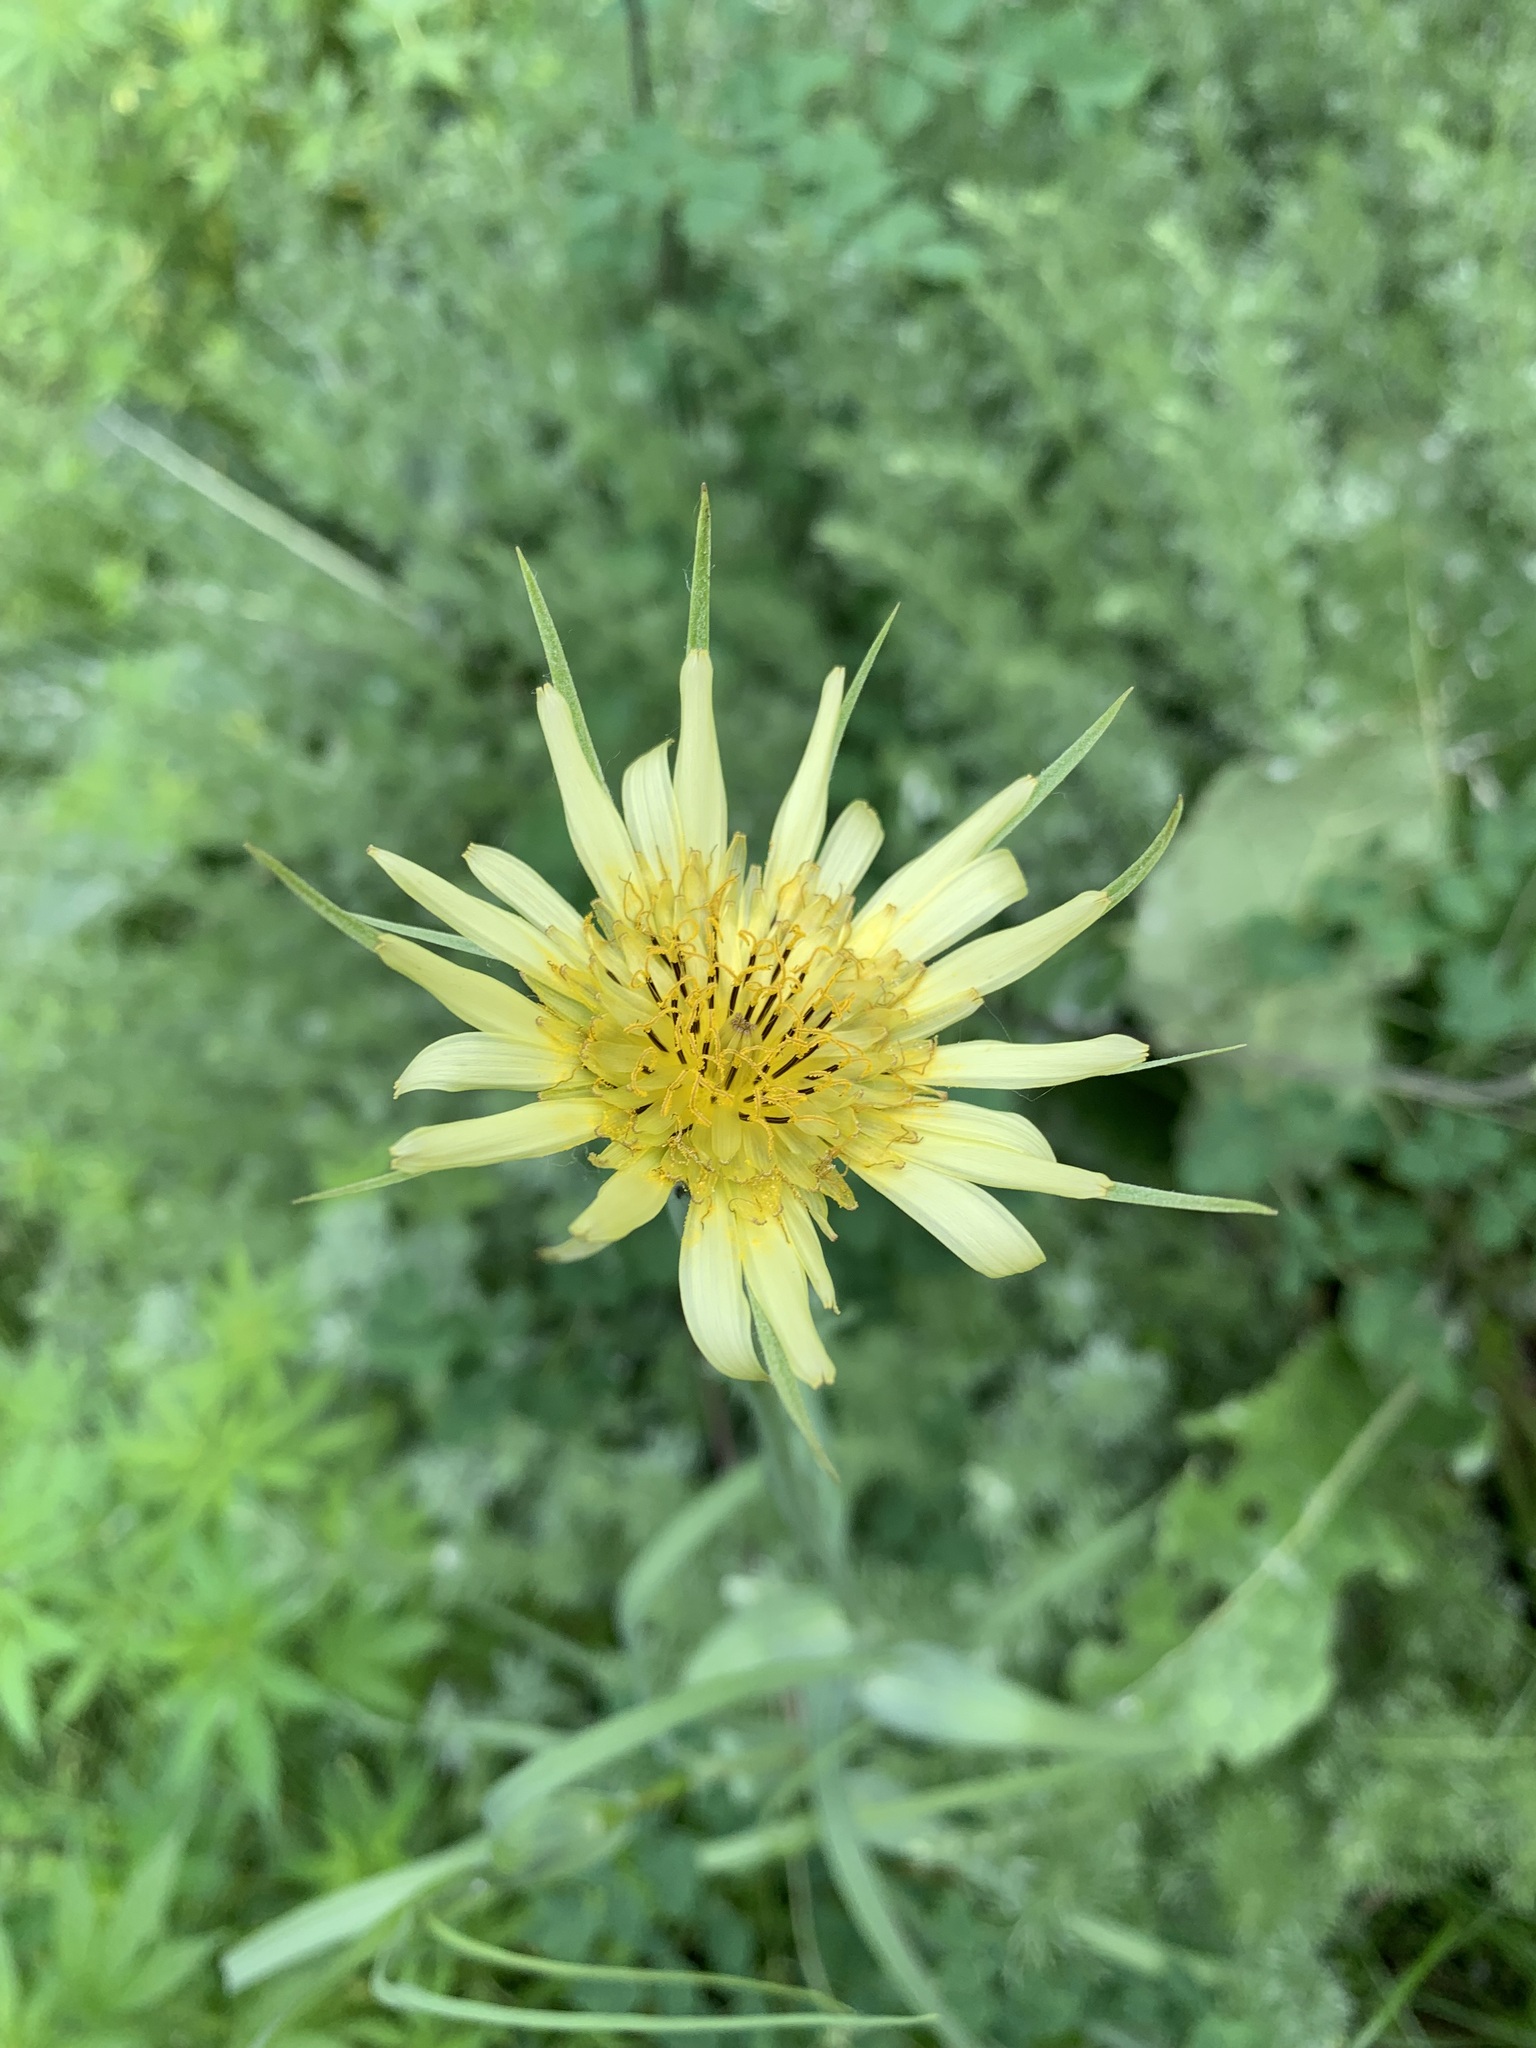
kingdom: Plantae
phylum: Tracheophyta
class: Magnoliopsida
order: Asterales
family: Asteraceae
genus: Tragopogon
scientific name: Tragopogon dubius
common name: Yellow salsify
